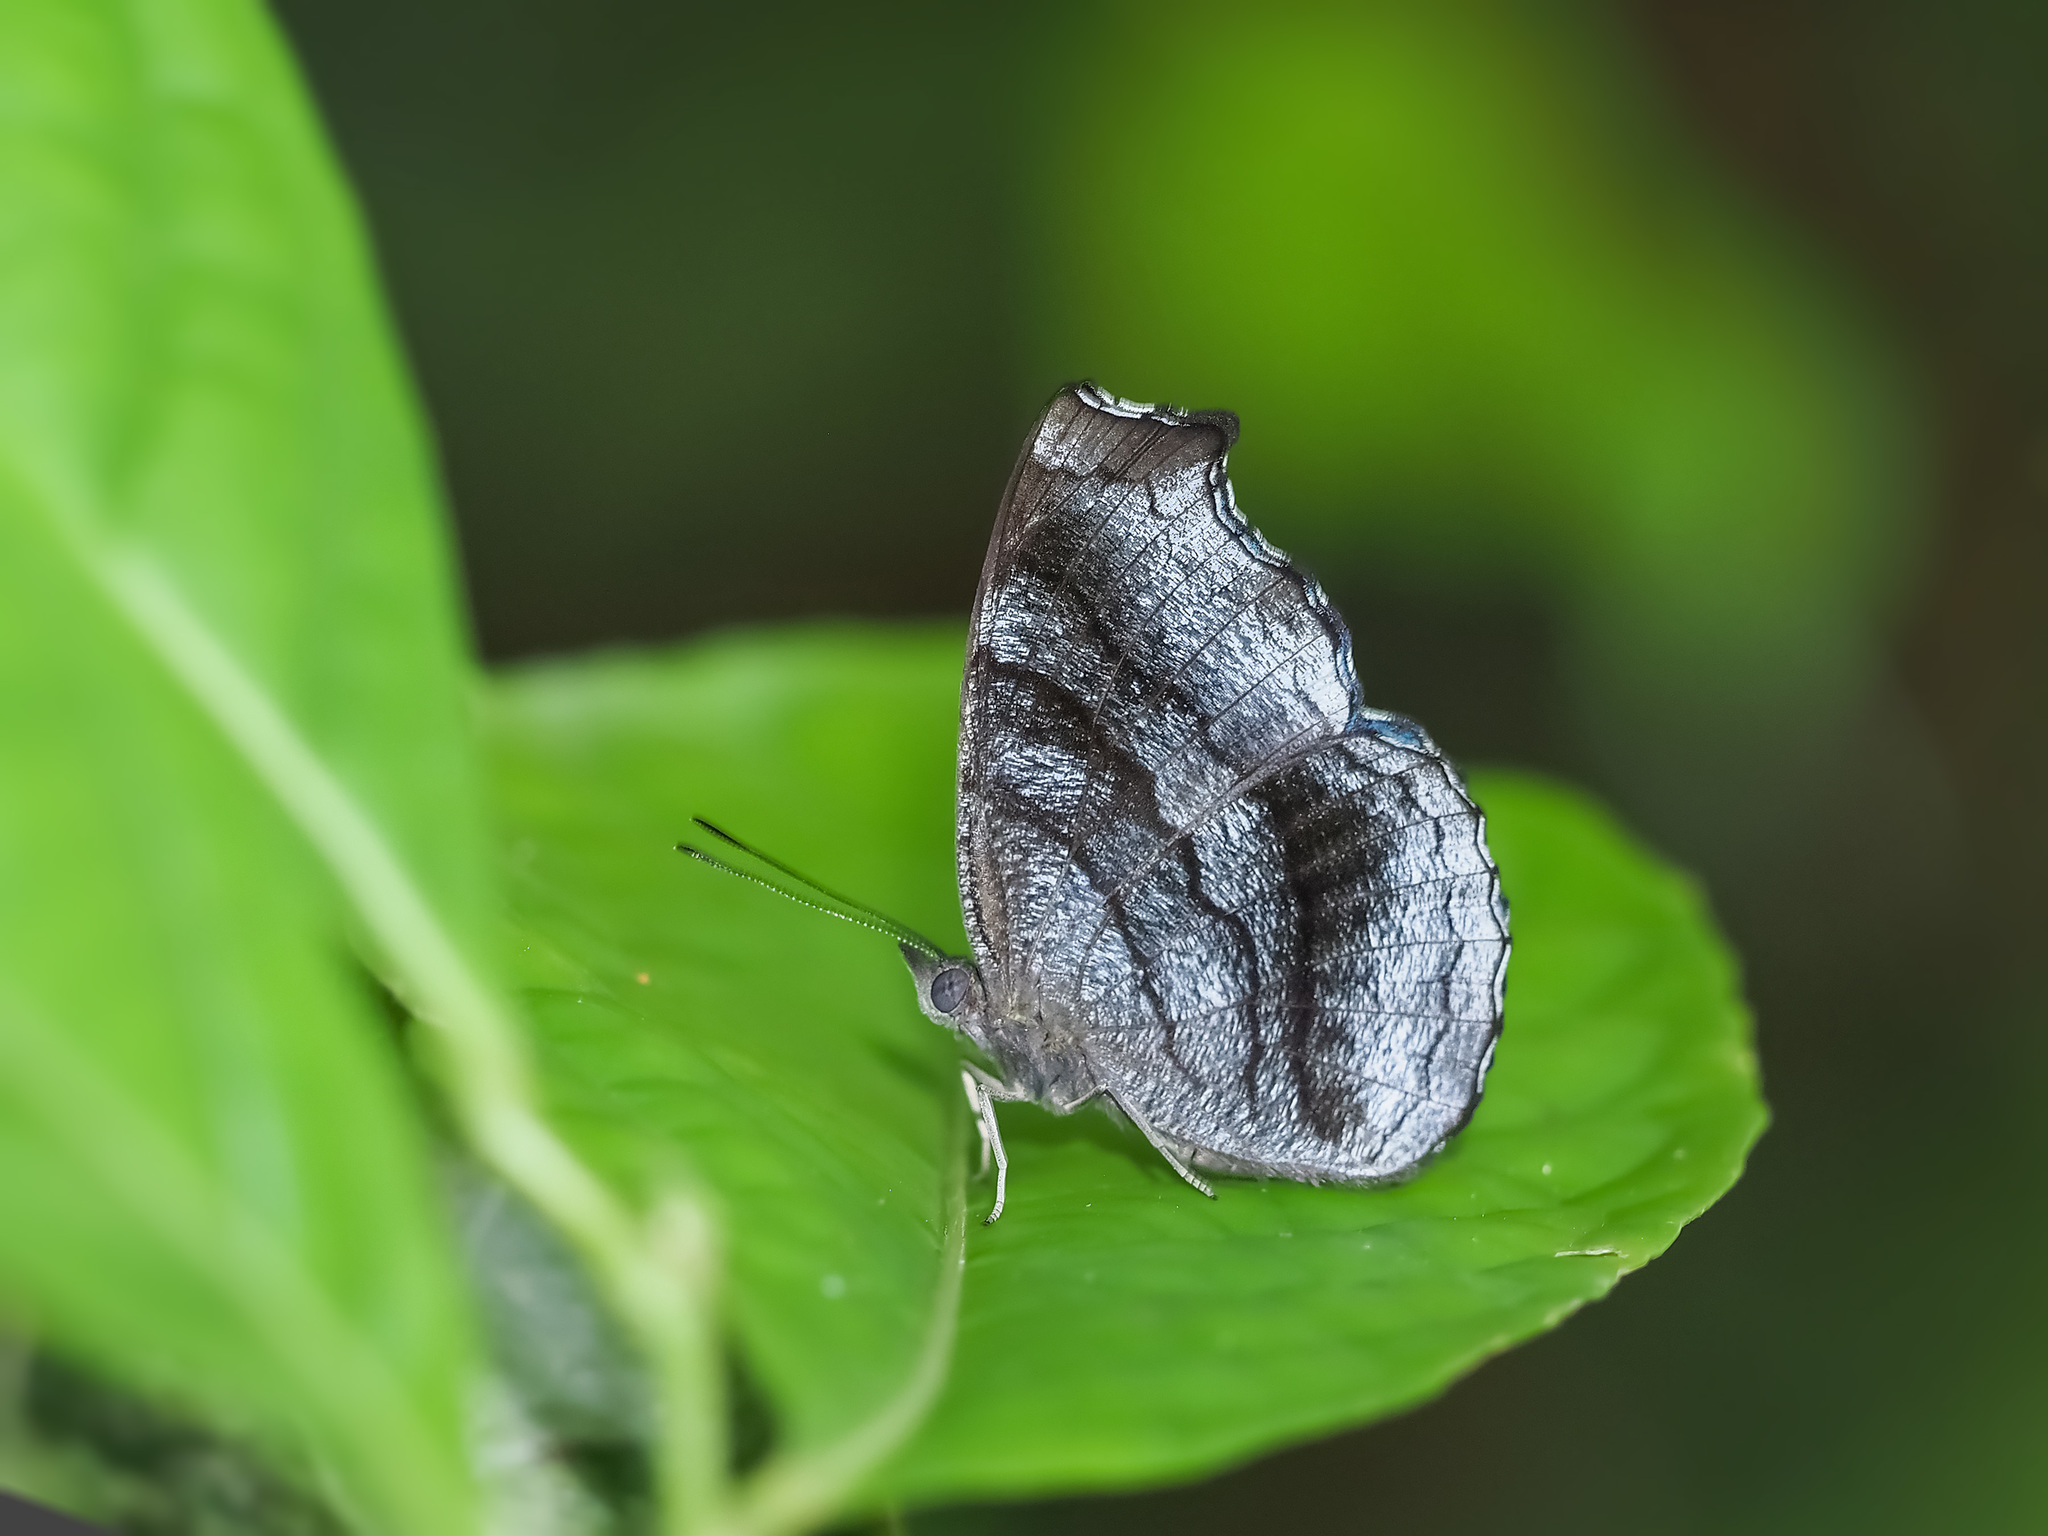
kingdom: Animalia
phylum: Arthropoda
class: Insecta
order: Lepidoptera
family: Nymphalidae
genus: Laringa
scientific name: Laringa castelnaui
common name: Blue dandy
